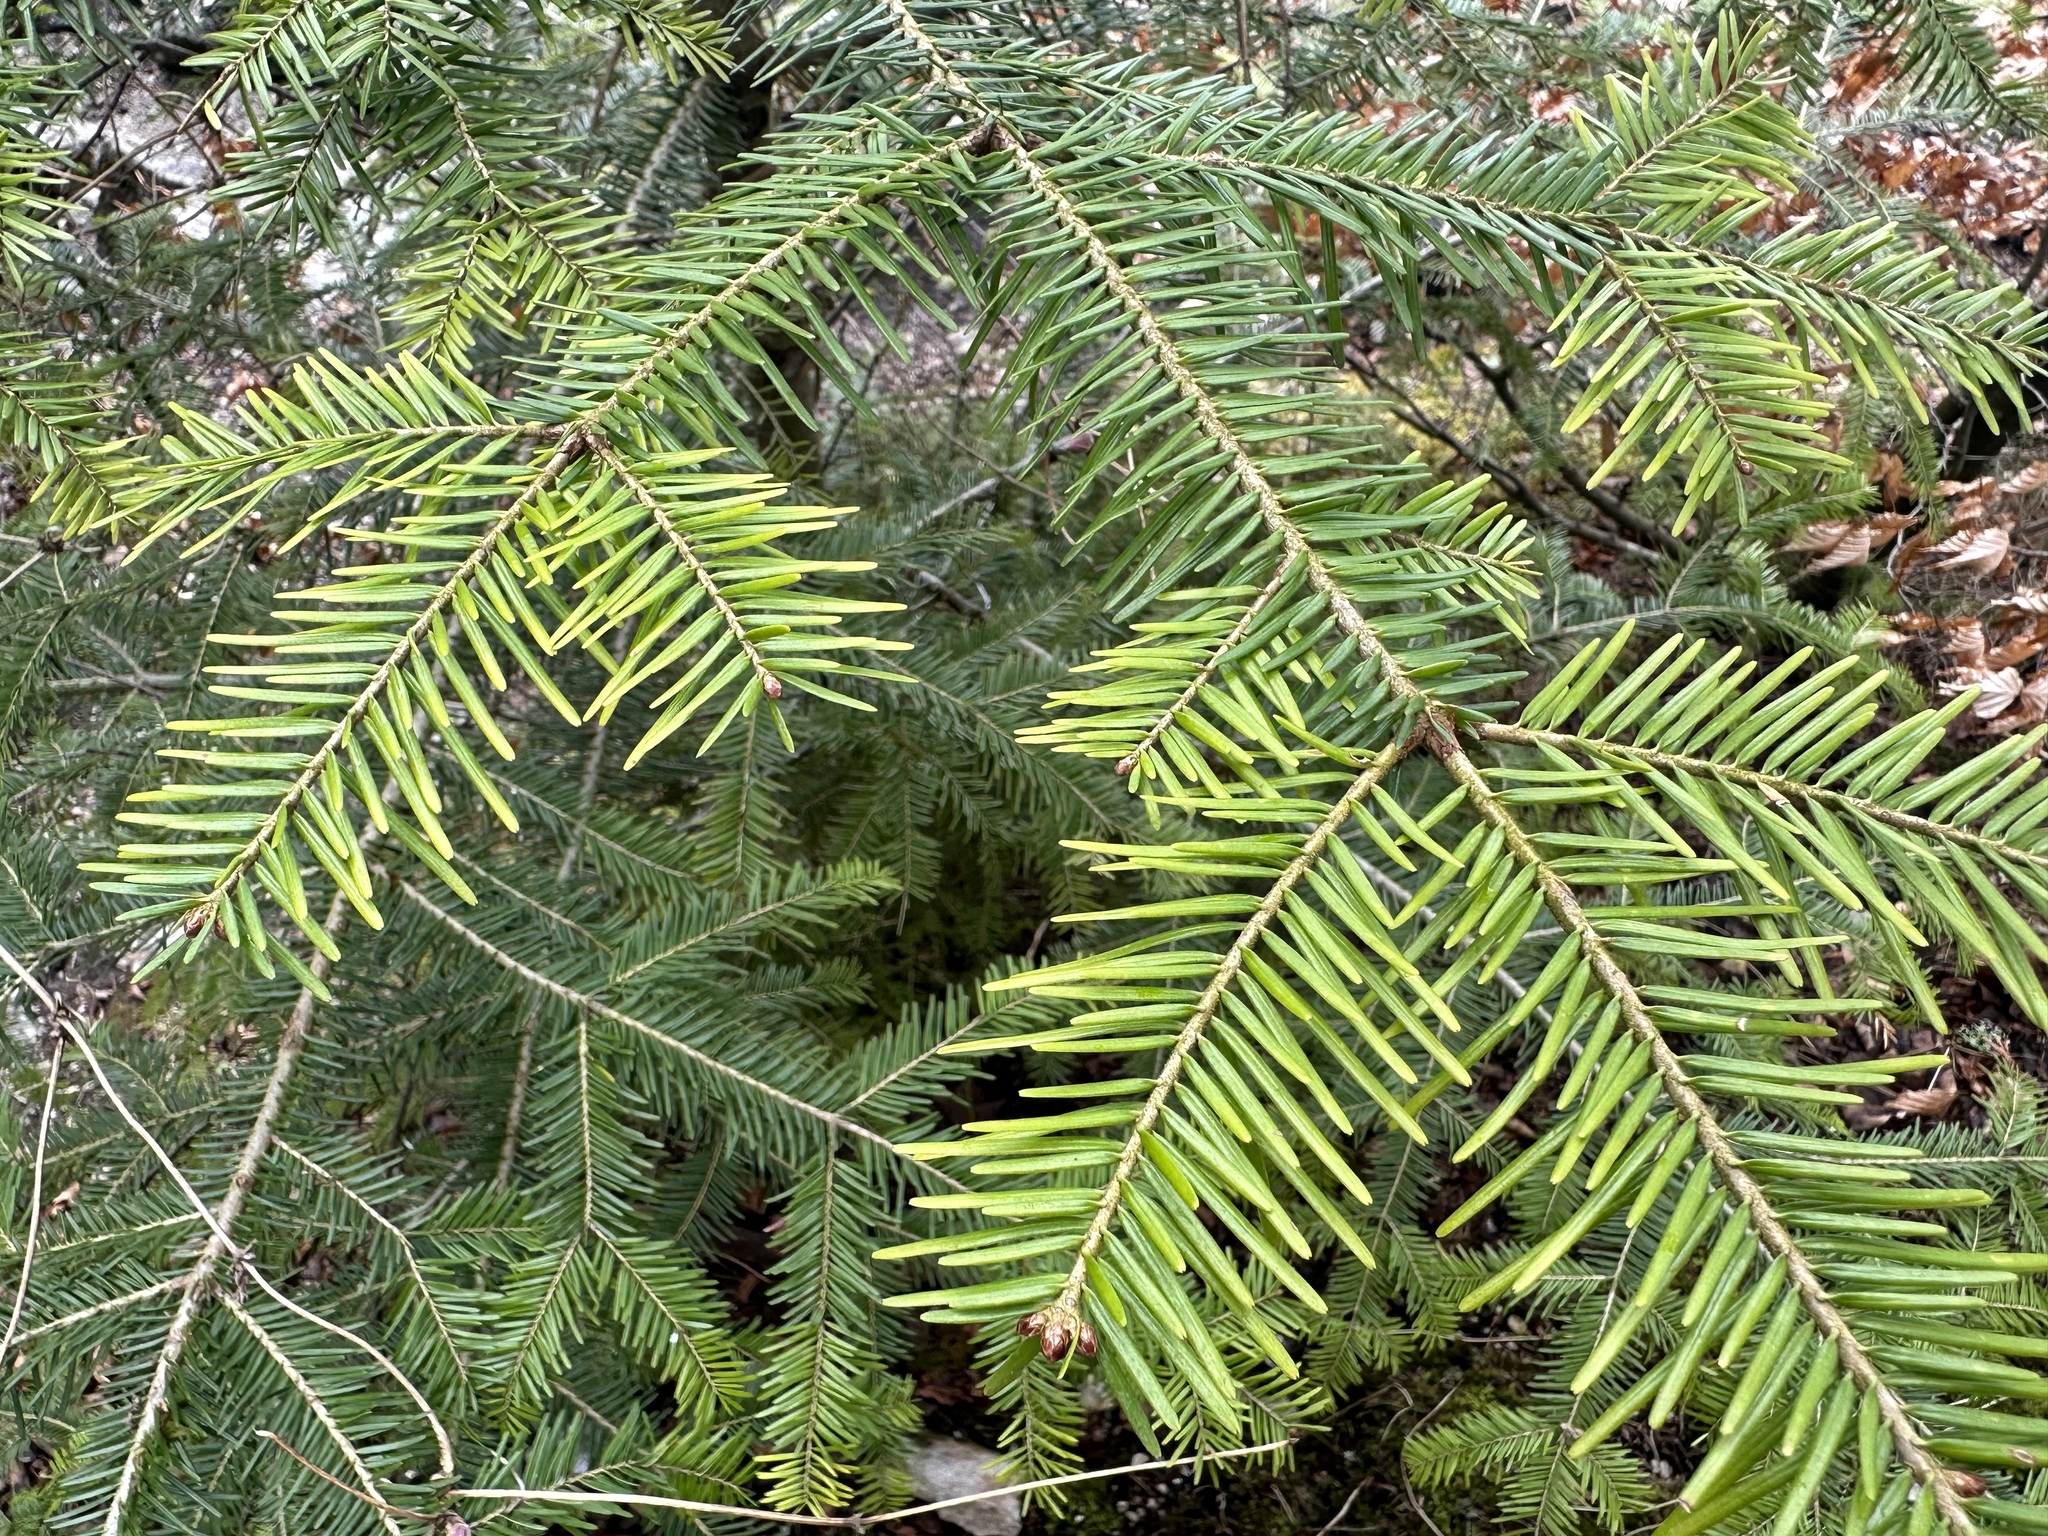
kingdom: Plantae
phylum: Tracheophyta
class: Pinopsida
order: Pinales
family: Pinaceae
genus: Abies
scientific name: Abies alba
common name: Silver fir
